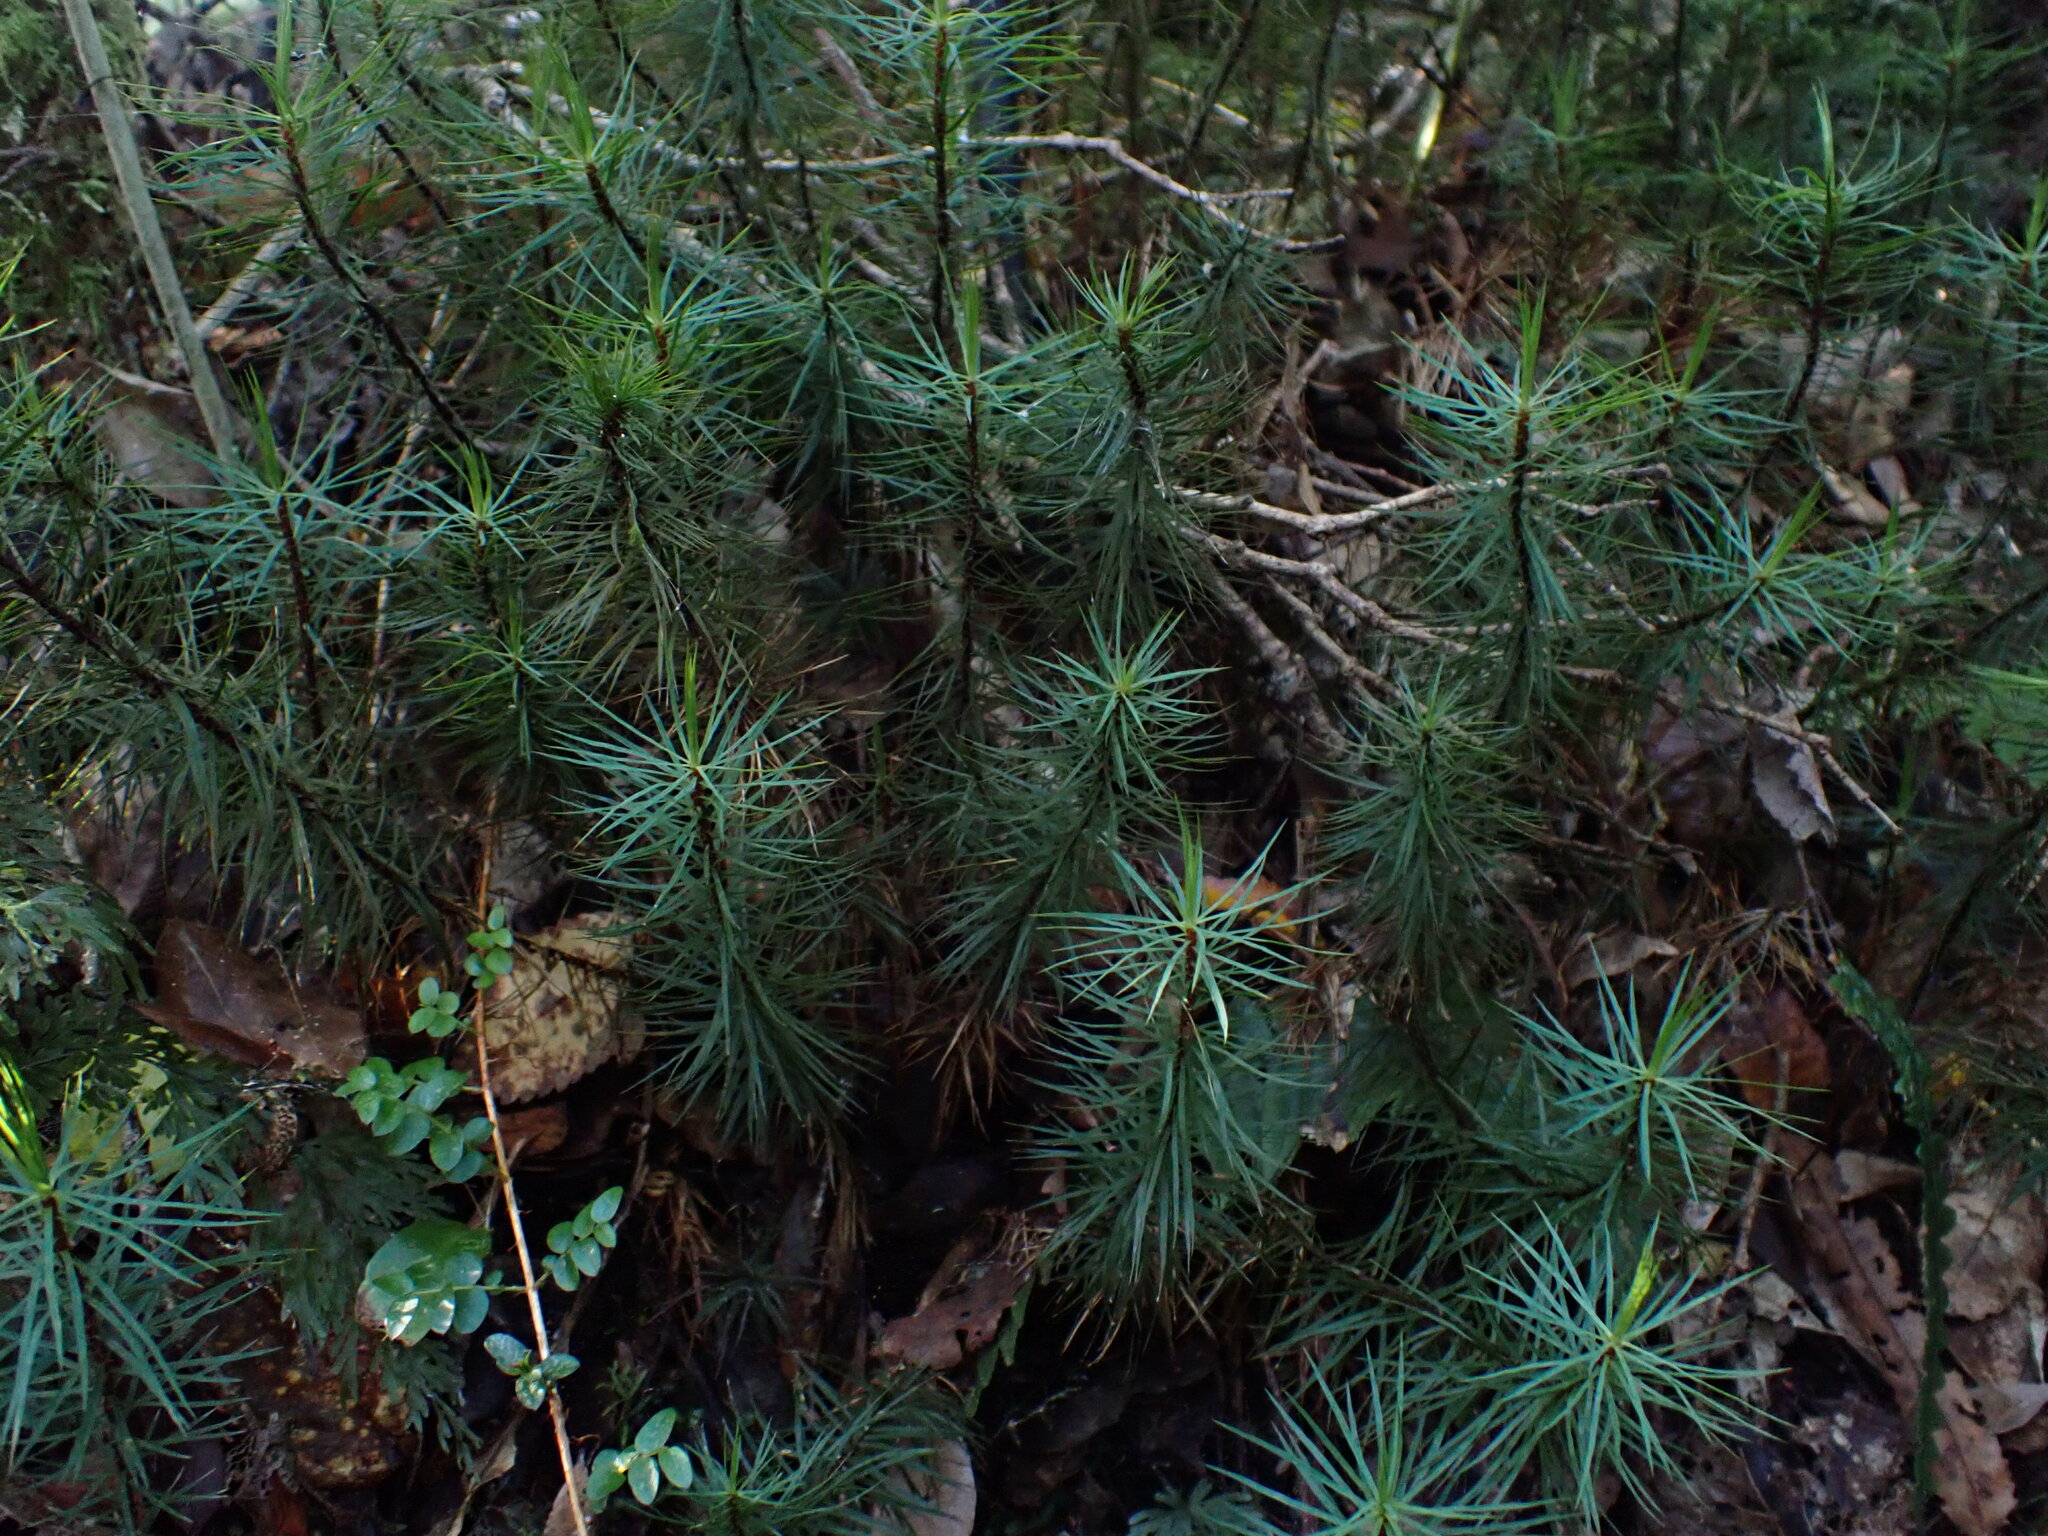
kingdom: Plantae
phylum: Bryophyta
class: Polytrichopsida
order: Polytrichales
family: Polytrichaceae
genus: Dawsonia
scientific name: Dawsonia superba
